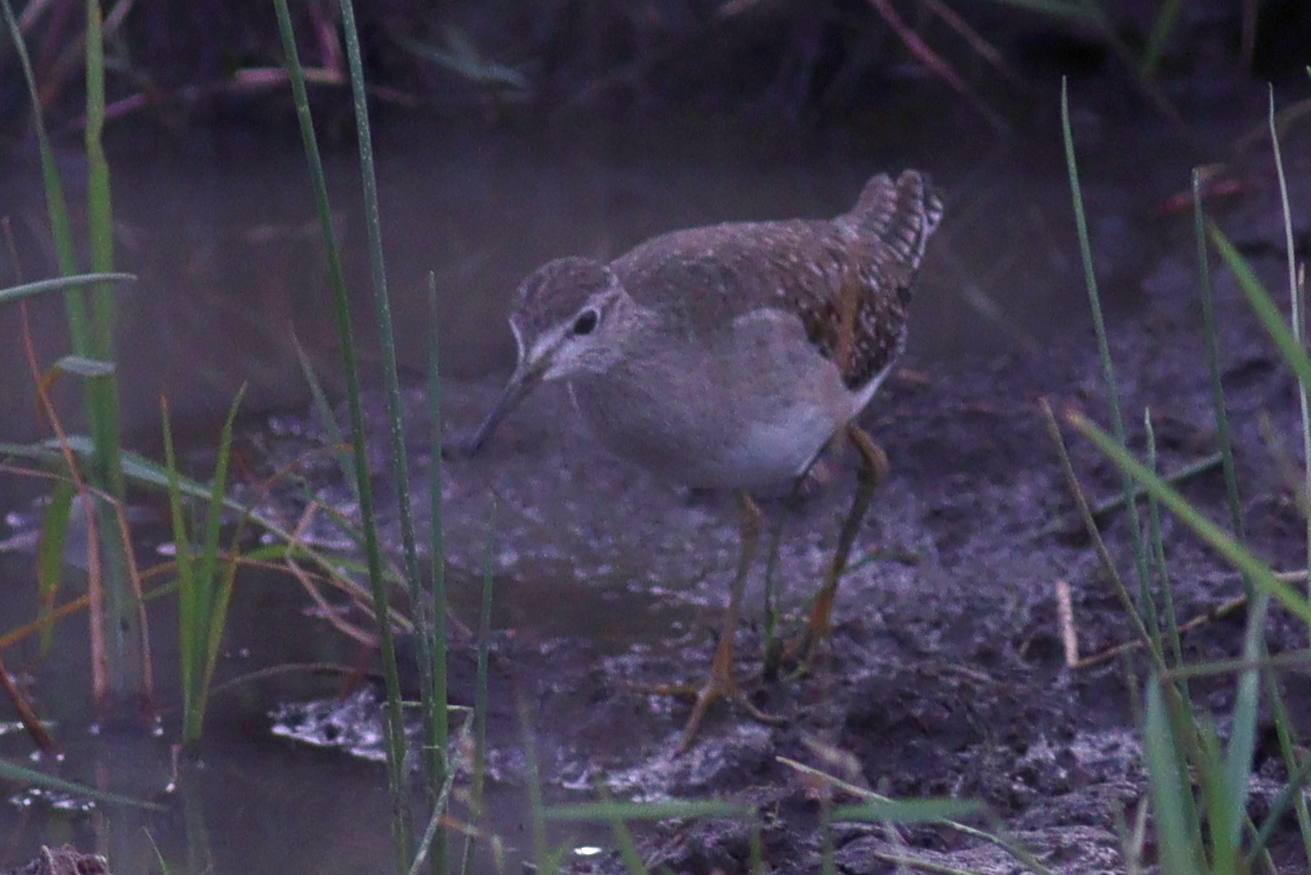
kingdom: Animalia
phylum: Chordata
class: Aves
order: Charadriiformes
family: Scolopacidae
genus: Tringa
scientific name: Tringa glareola
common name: Wood sandpiper
